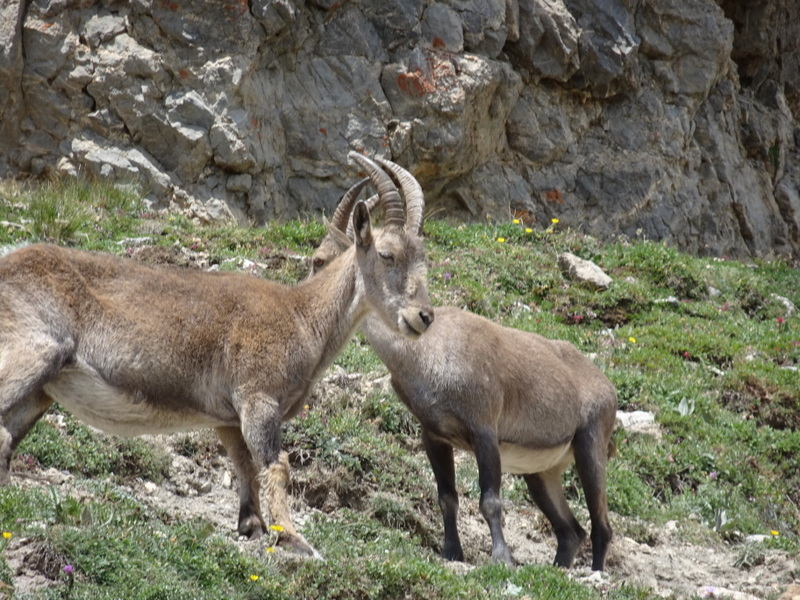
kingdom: Animalia
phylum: Chordata
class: Mammalia
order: Artiodactyla
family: Bovidae
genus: Capra
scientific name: Capra ibex
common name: Alpine ibex
